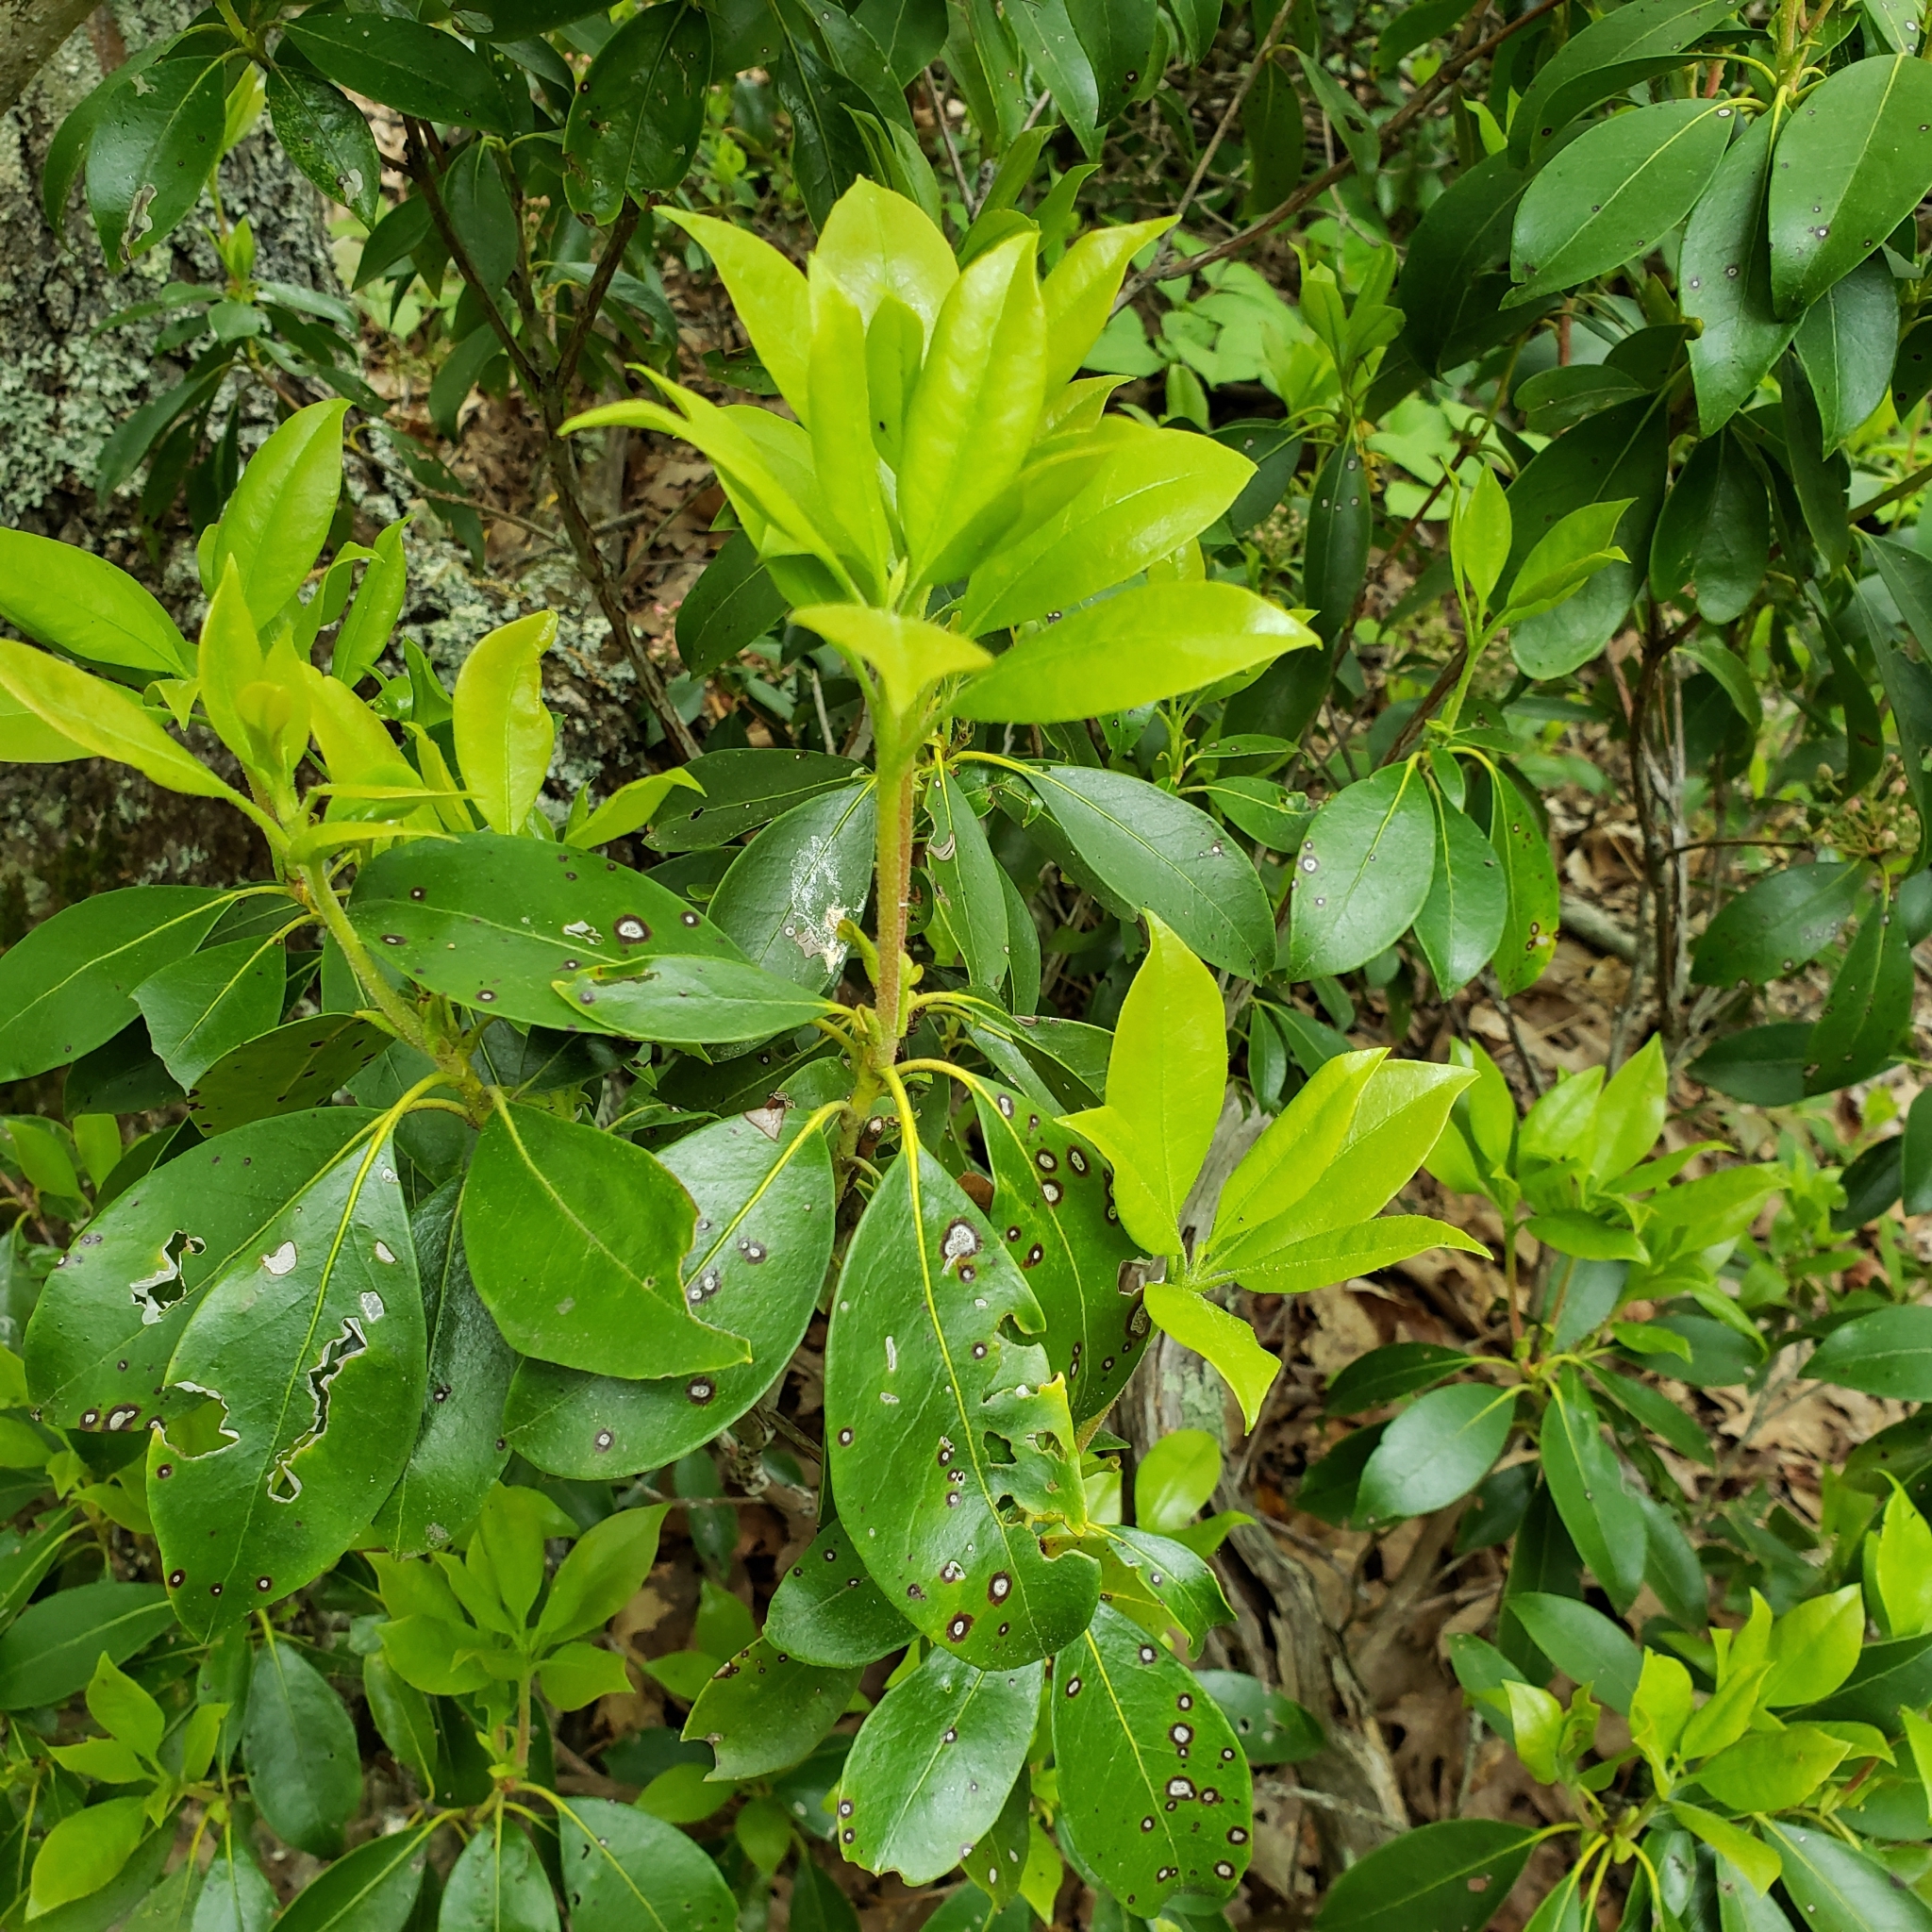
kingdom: Plantae
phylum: Tracheophyta
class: Magnoliopsida
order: Ericales
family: Ericaceae
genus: Kalmia
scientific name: Kalmia latifolia
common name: Mountain-laurel
